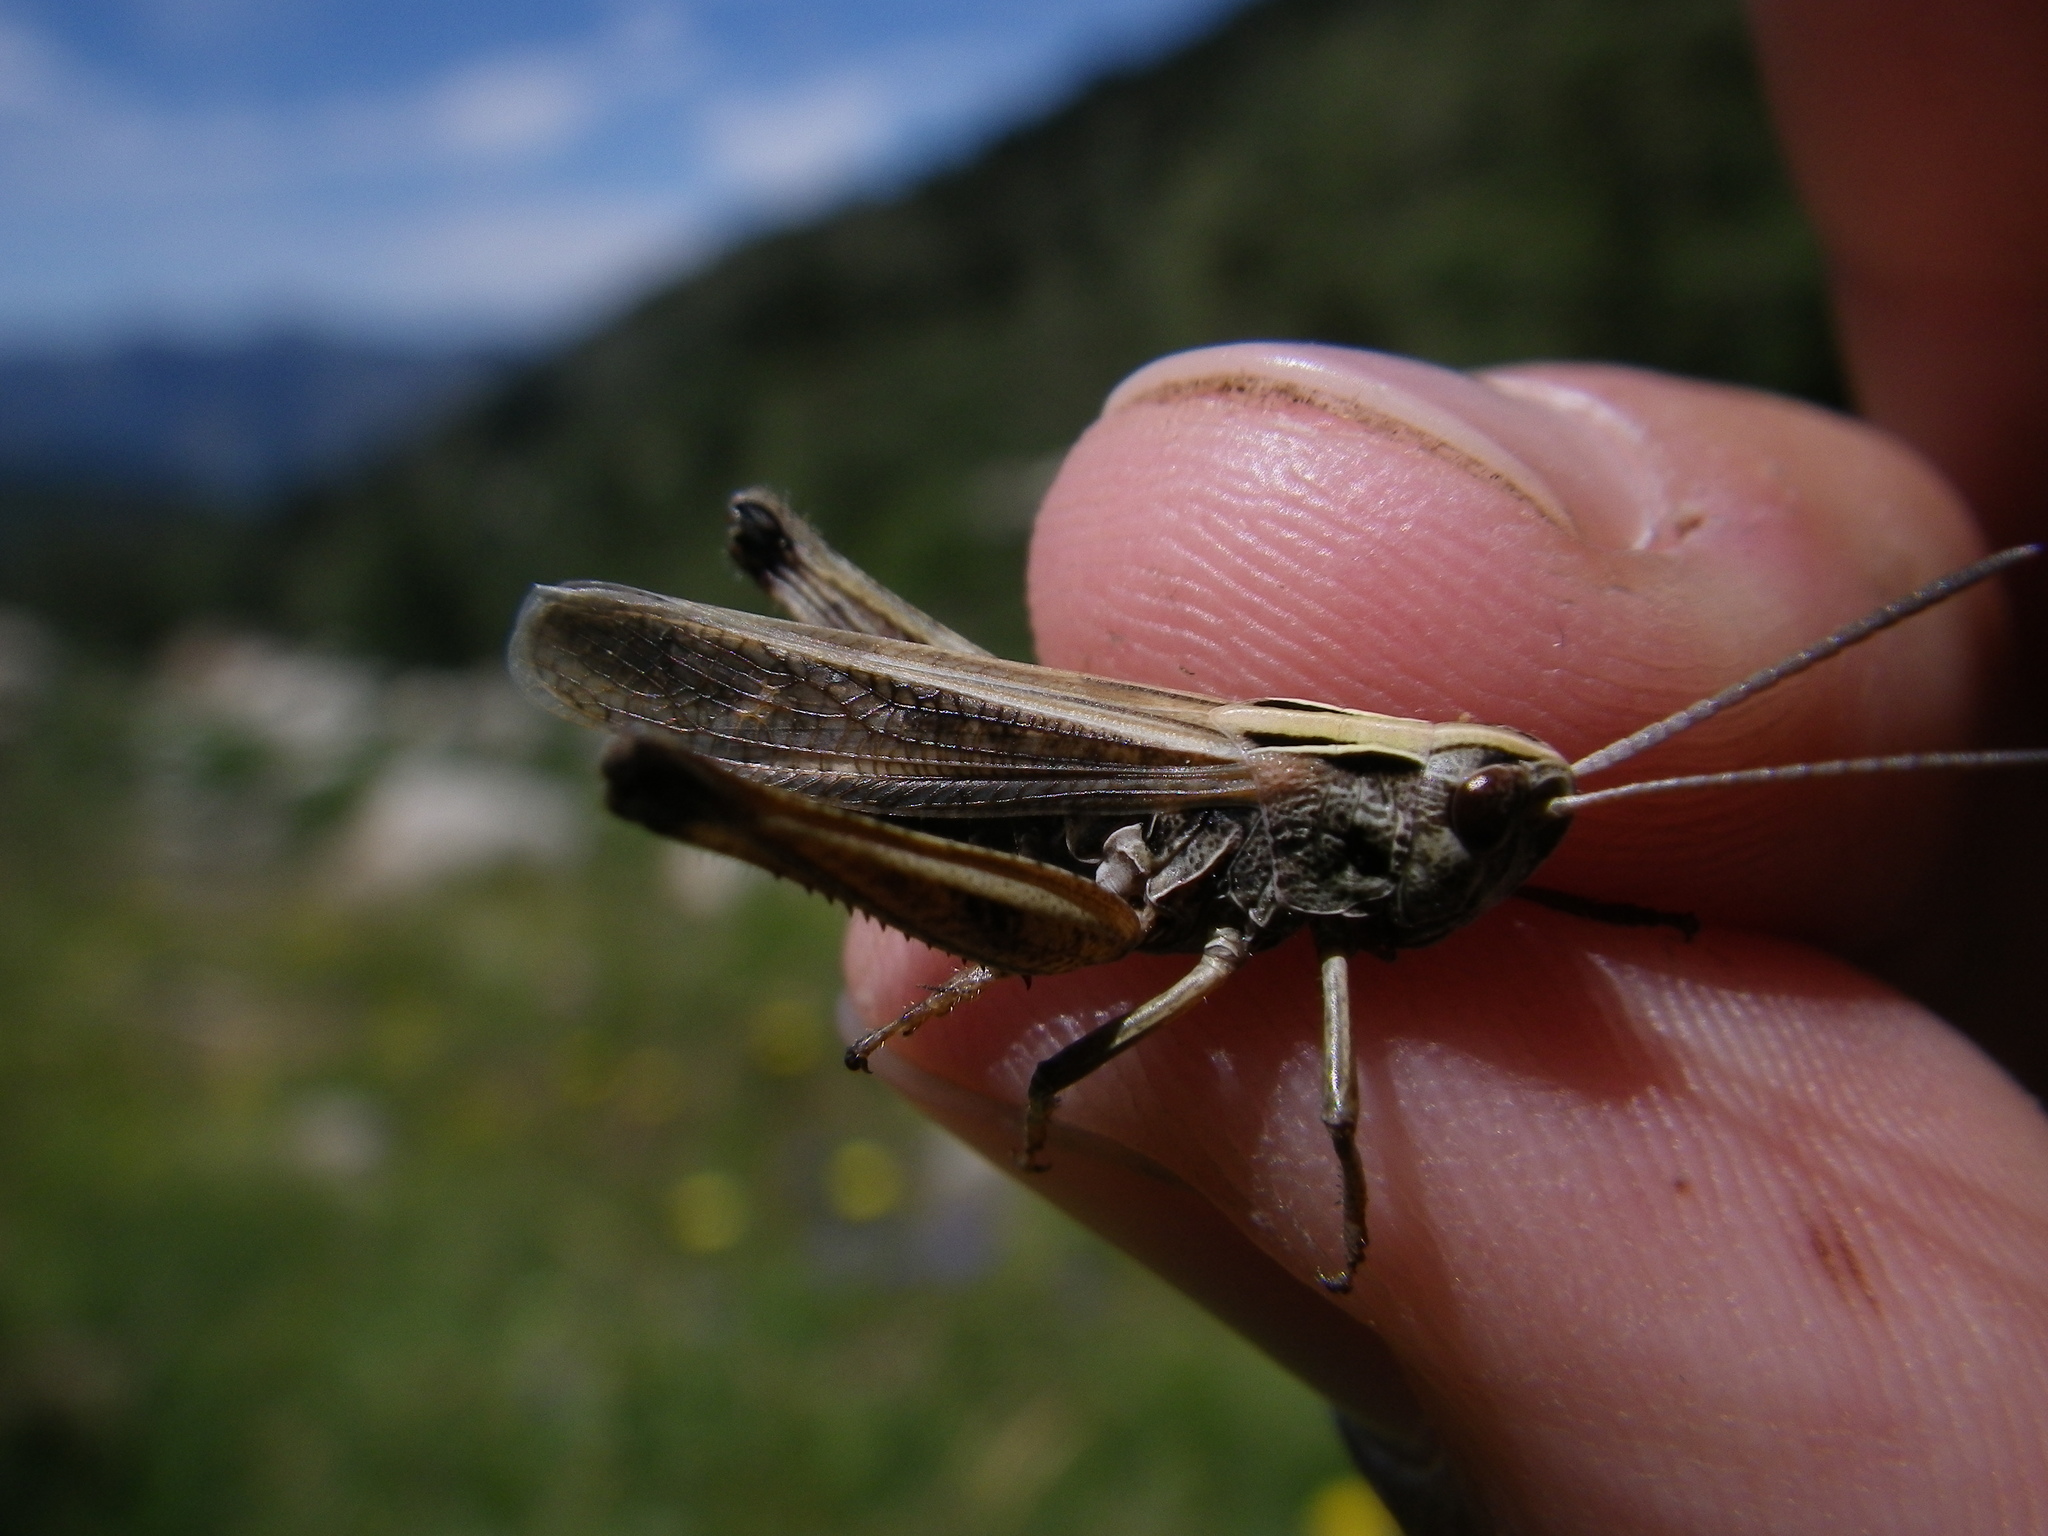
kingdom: Animalia
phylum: Arthropoda
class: Insecta
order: Orthoptera
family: Acrididae
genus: Omocestus
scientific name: Omocestus rufipes
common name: Woodland grasshopper
